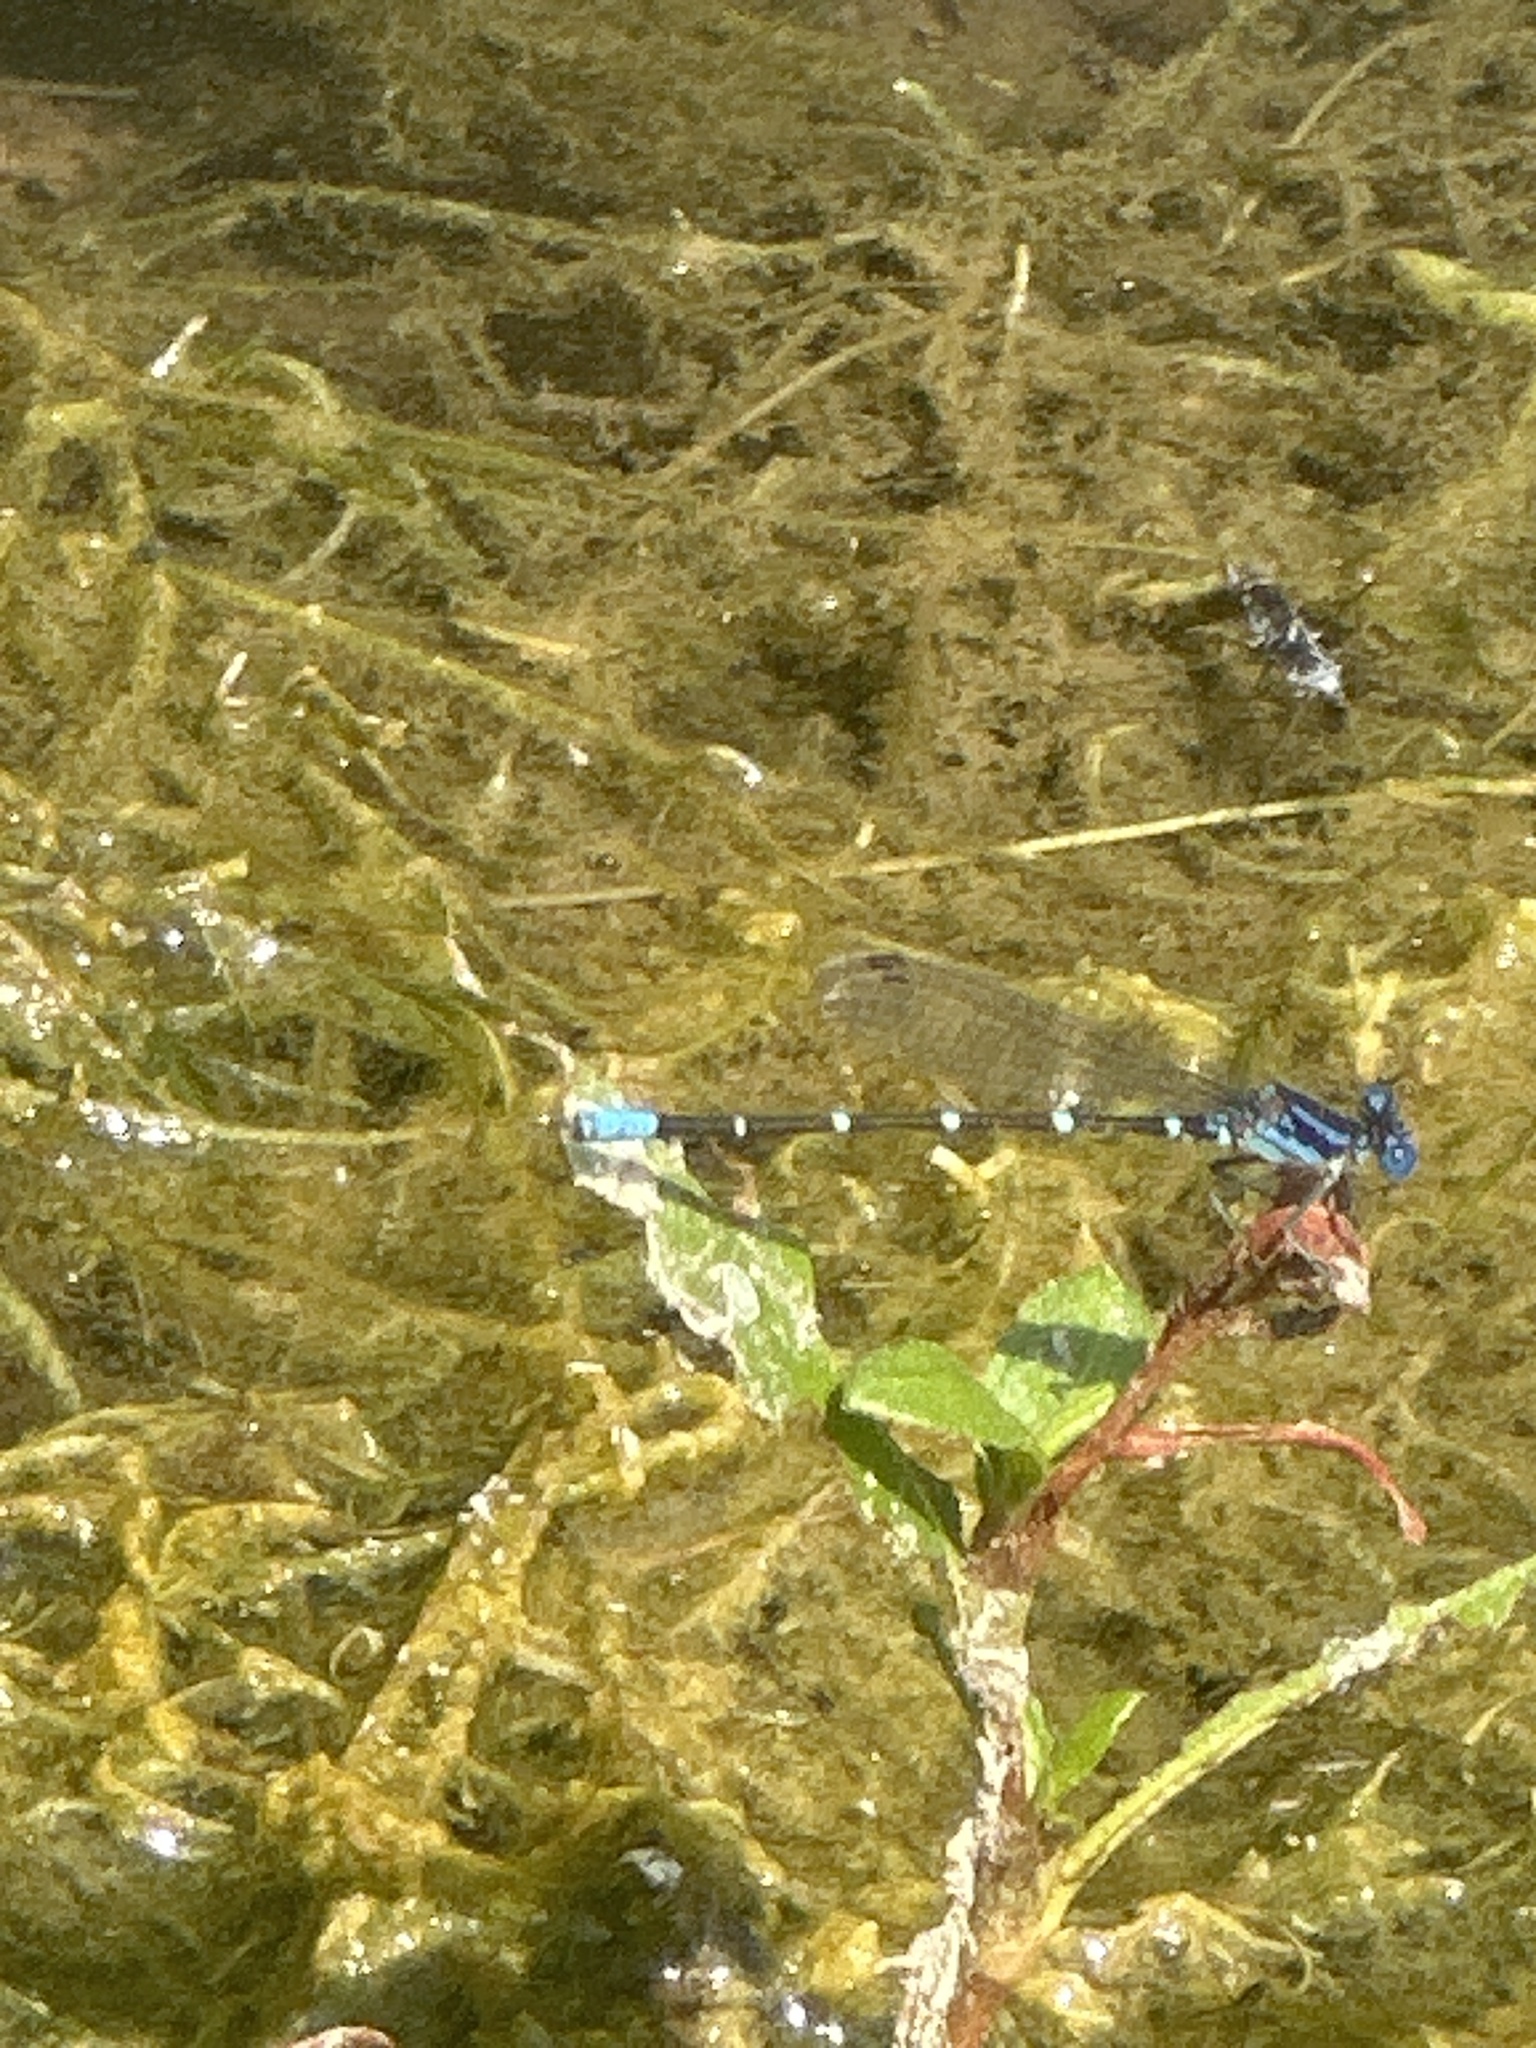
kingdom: Animalia
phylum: Arthropoda
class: Insecta
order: Odonata
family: Coenagrionidae
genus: Argia
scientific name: Argia sedula
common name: Blue-ringed dancer
